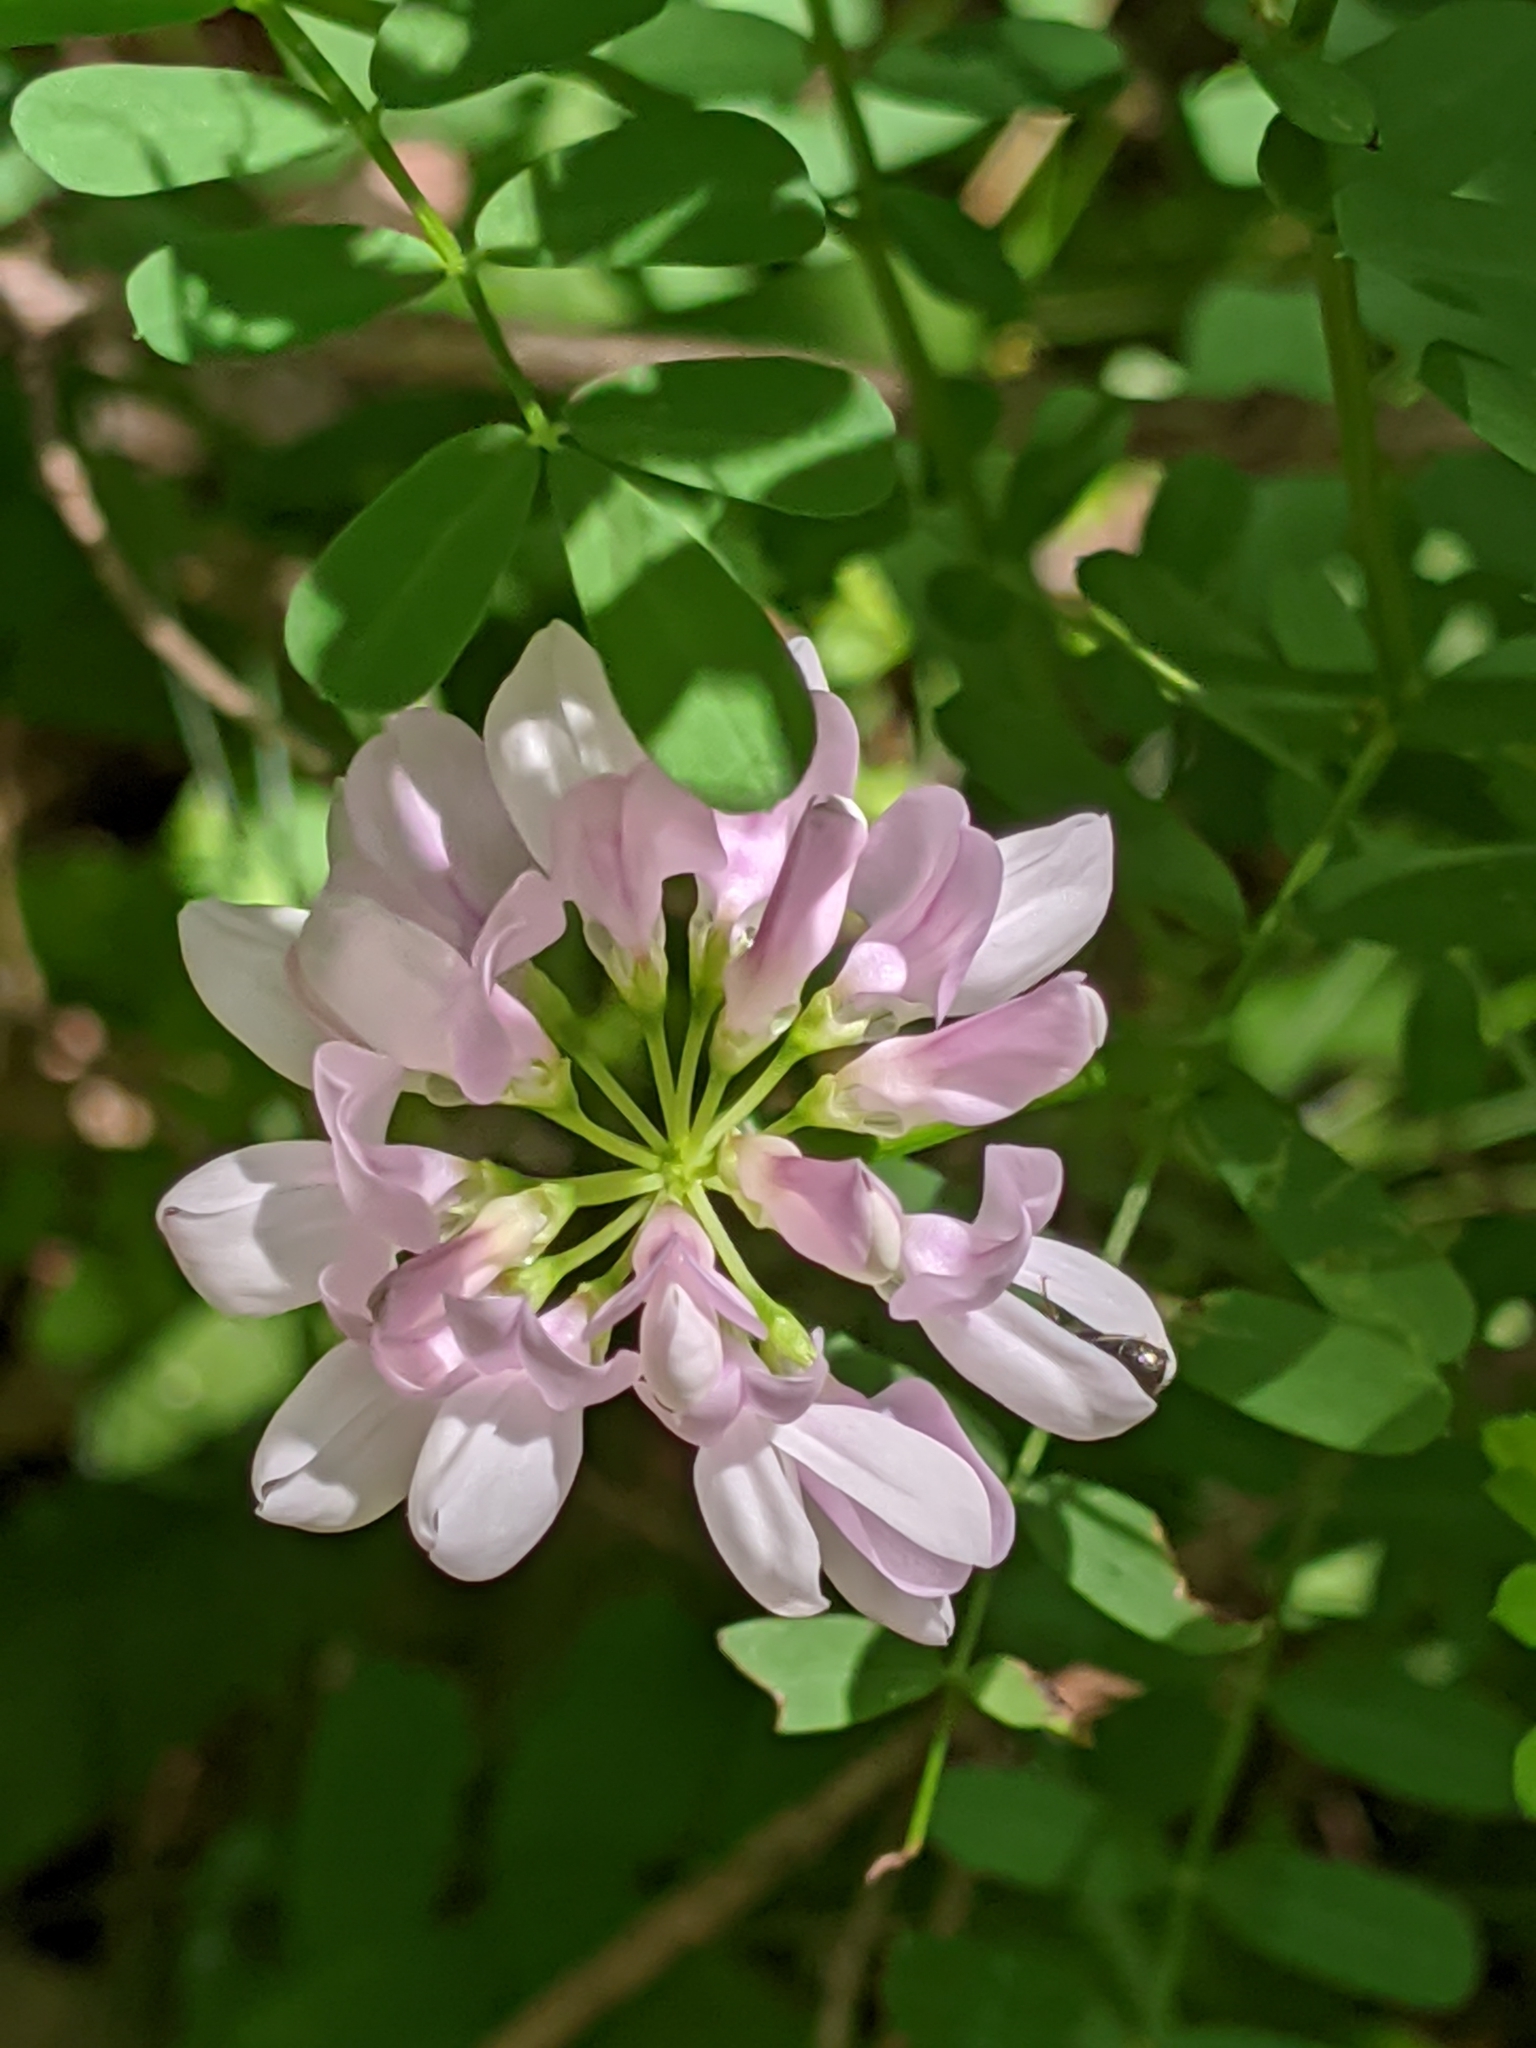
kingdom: Plantae
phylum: Tracheophyta
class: Magnoliopsida
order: Fabales
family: Fabaceae
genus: Coronilla
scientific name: Coronilla varia
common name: Crownvetch
